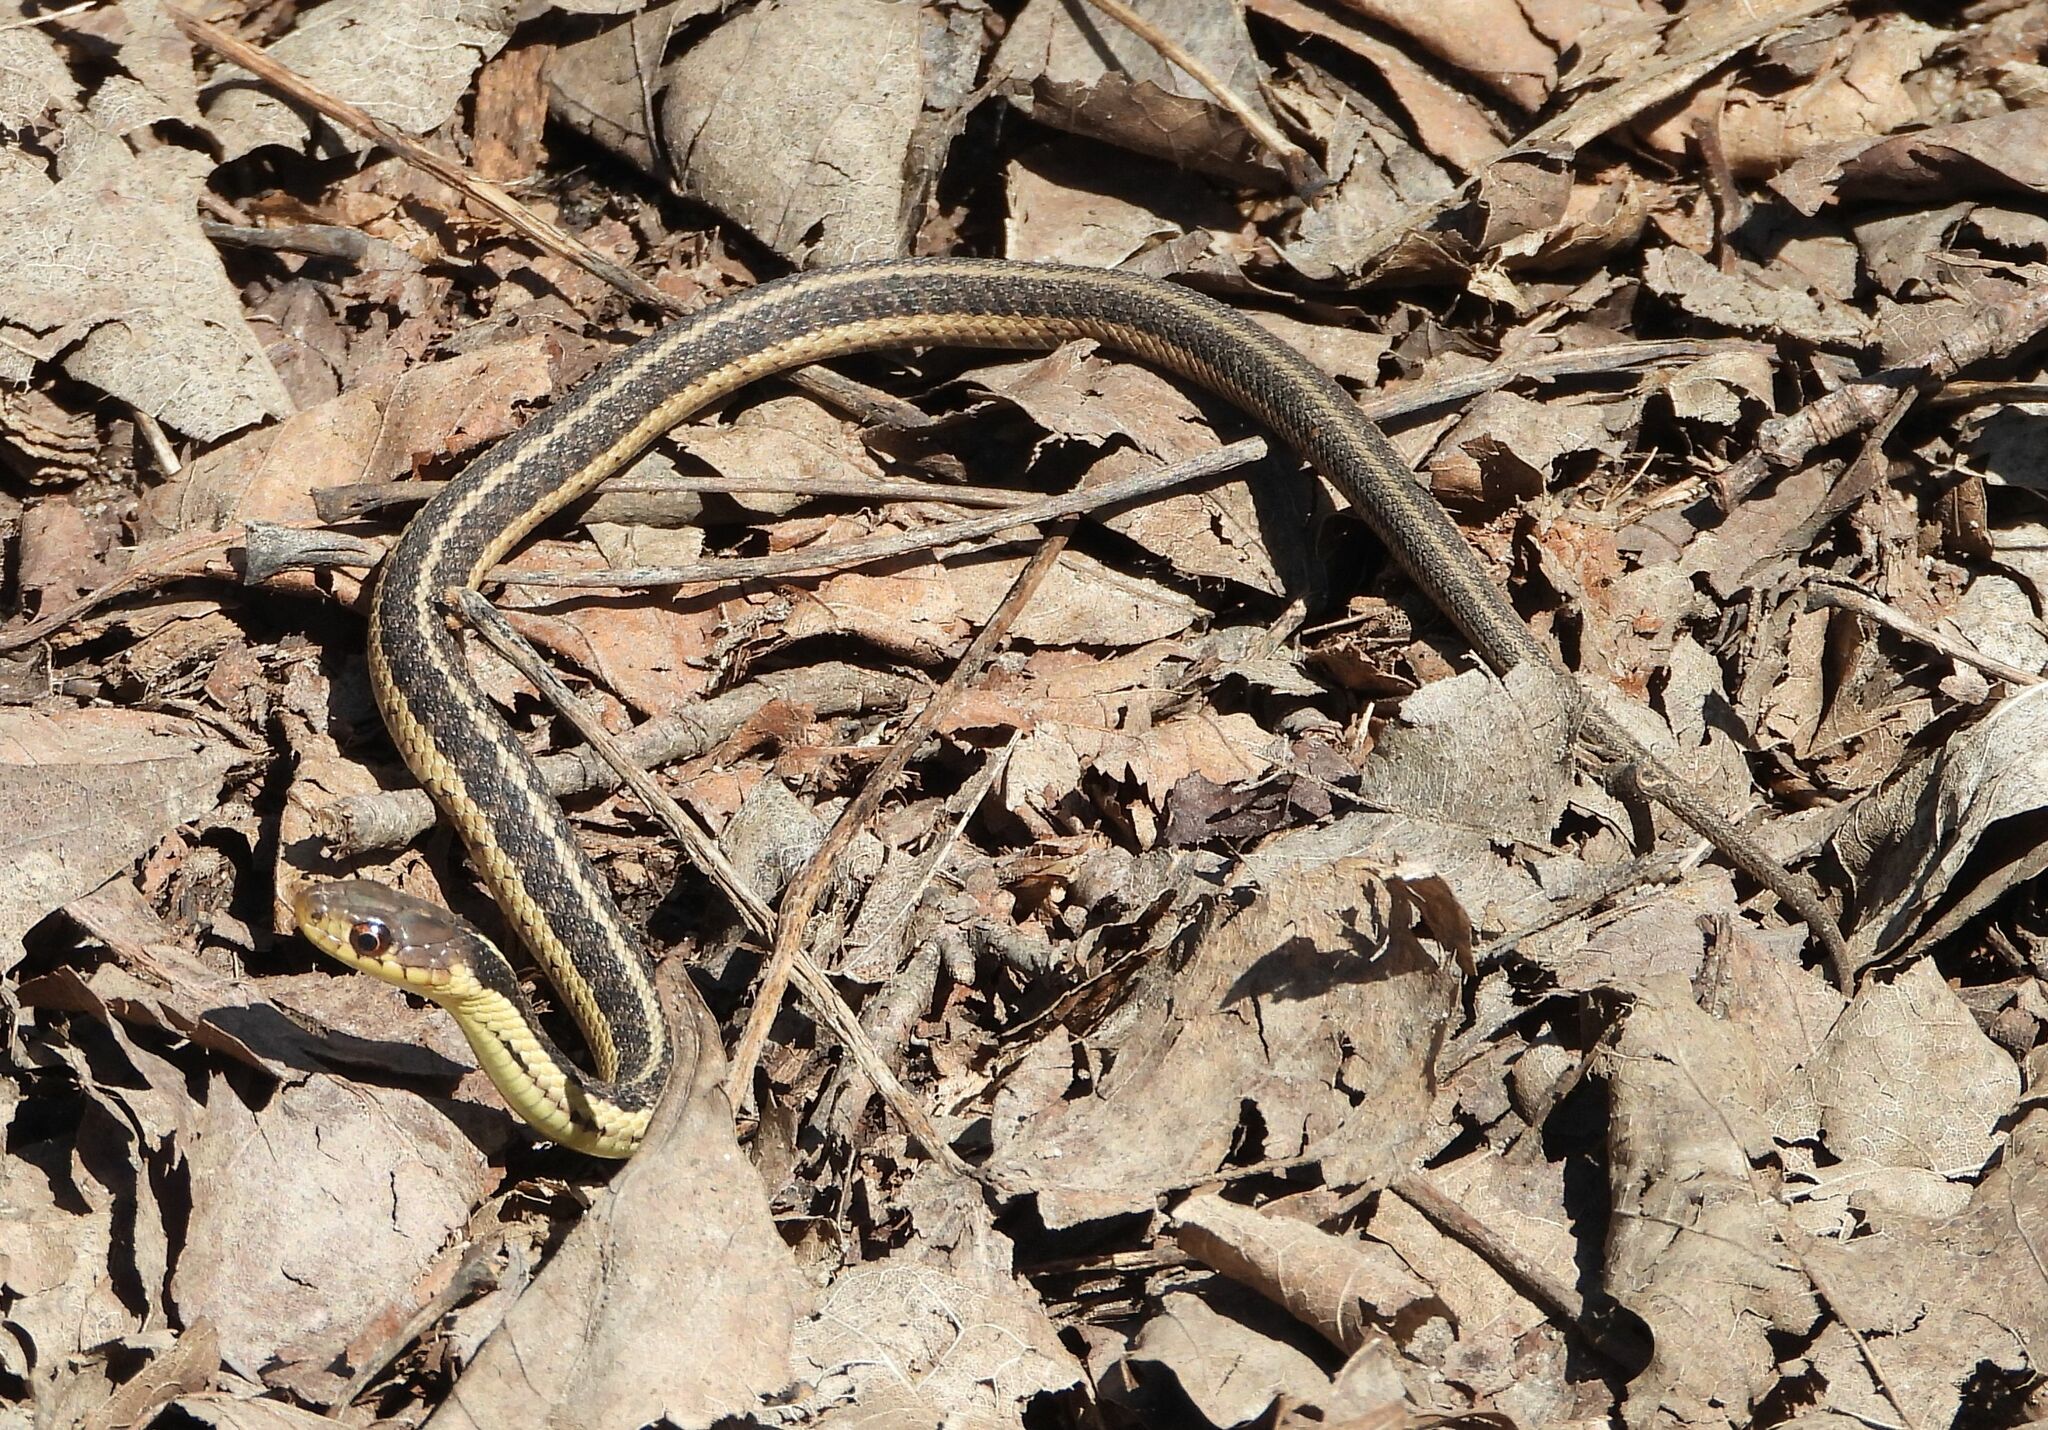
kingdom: Animalia
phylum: Chordata
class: Squamata
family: Colubridae
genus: Thamnophis
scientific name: Thamnophis sirtalis
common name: Common garter snake
